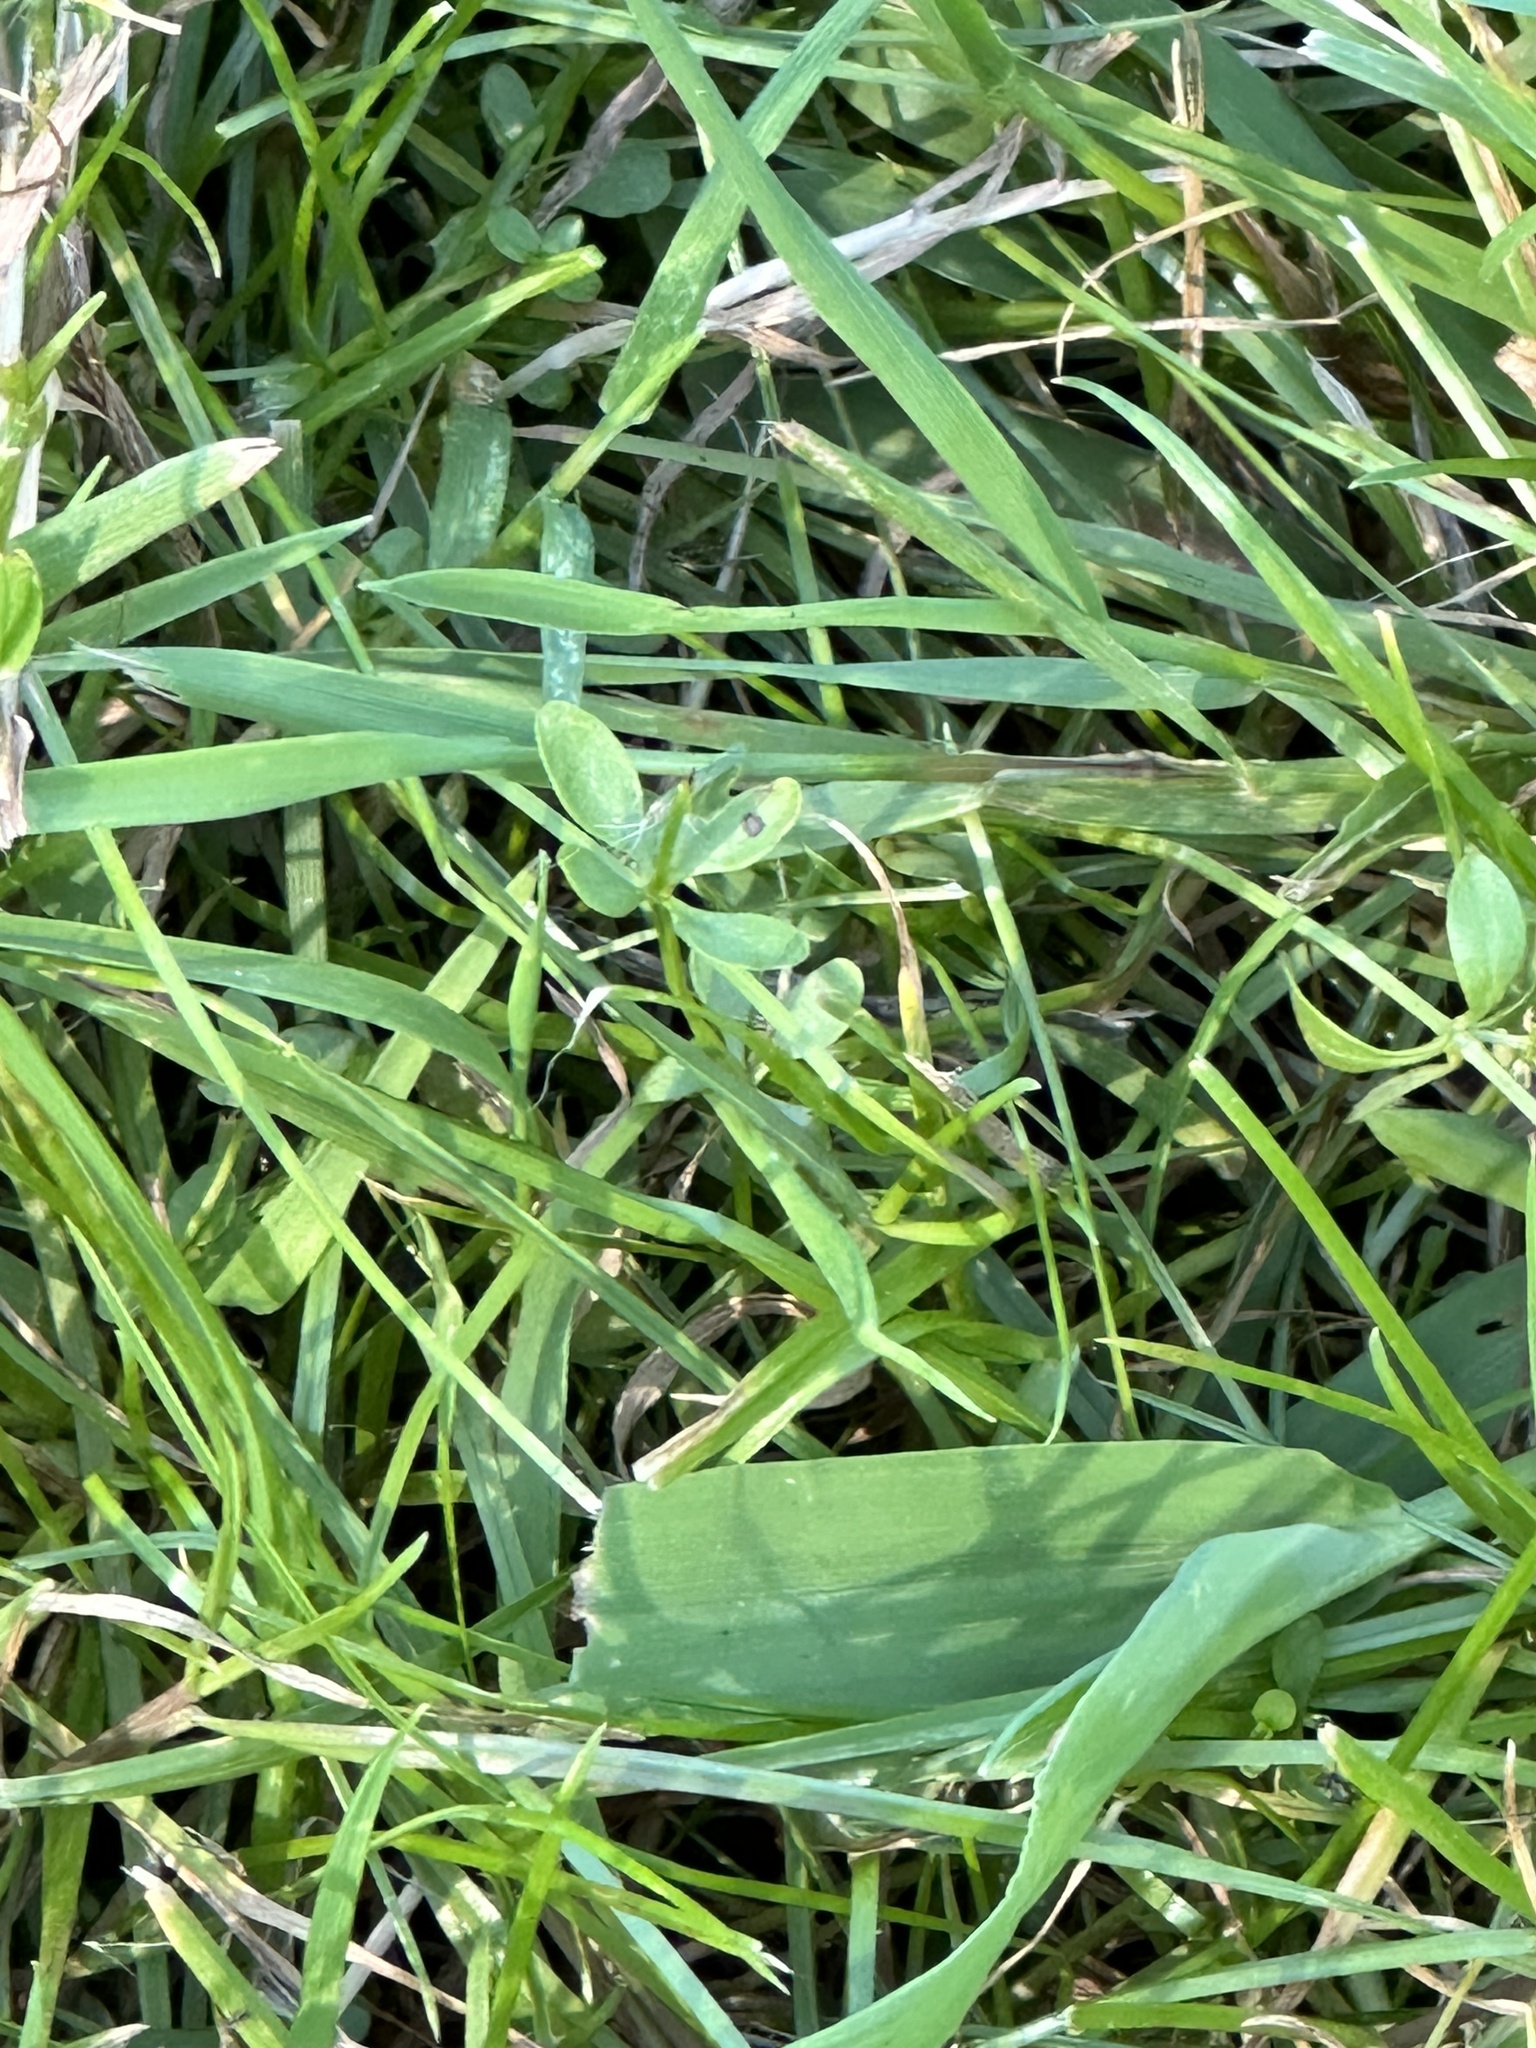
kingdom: Animalia
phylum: Chordata
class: Amphibia
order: Anura
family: Ranidae
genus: Lithobates
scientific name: Lithobates pipiens
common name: Northern leopard frog
